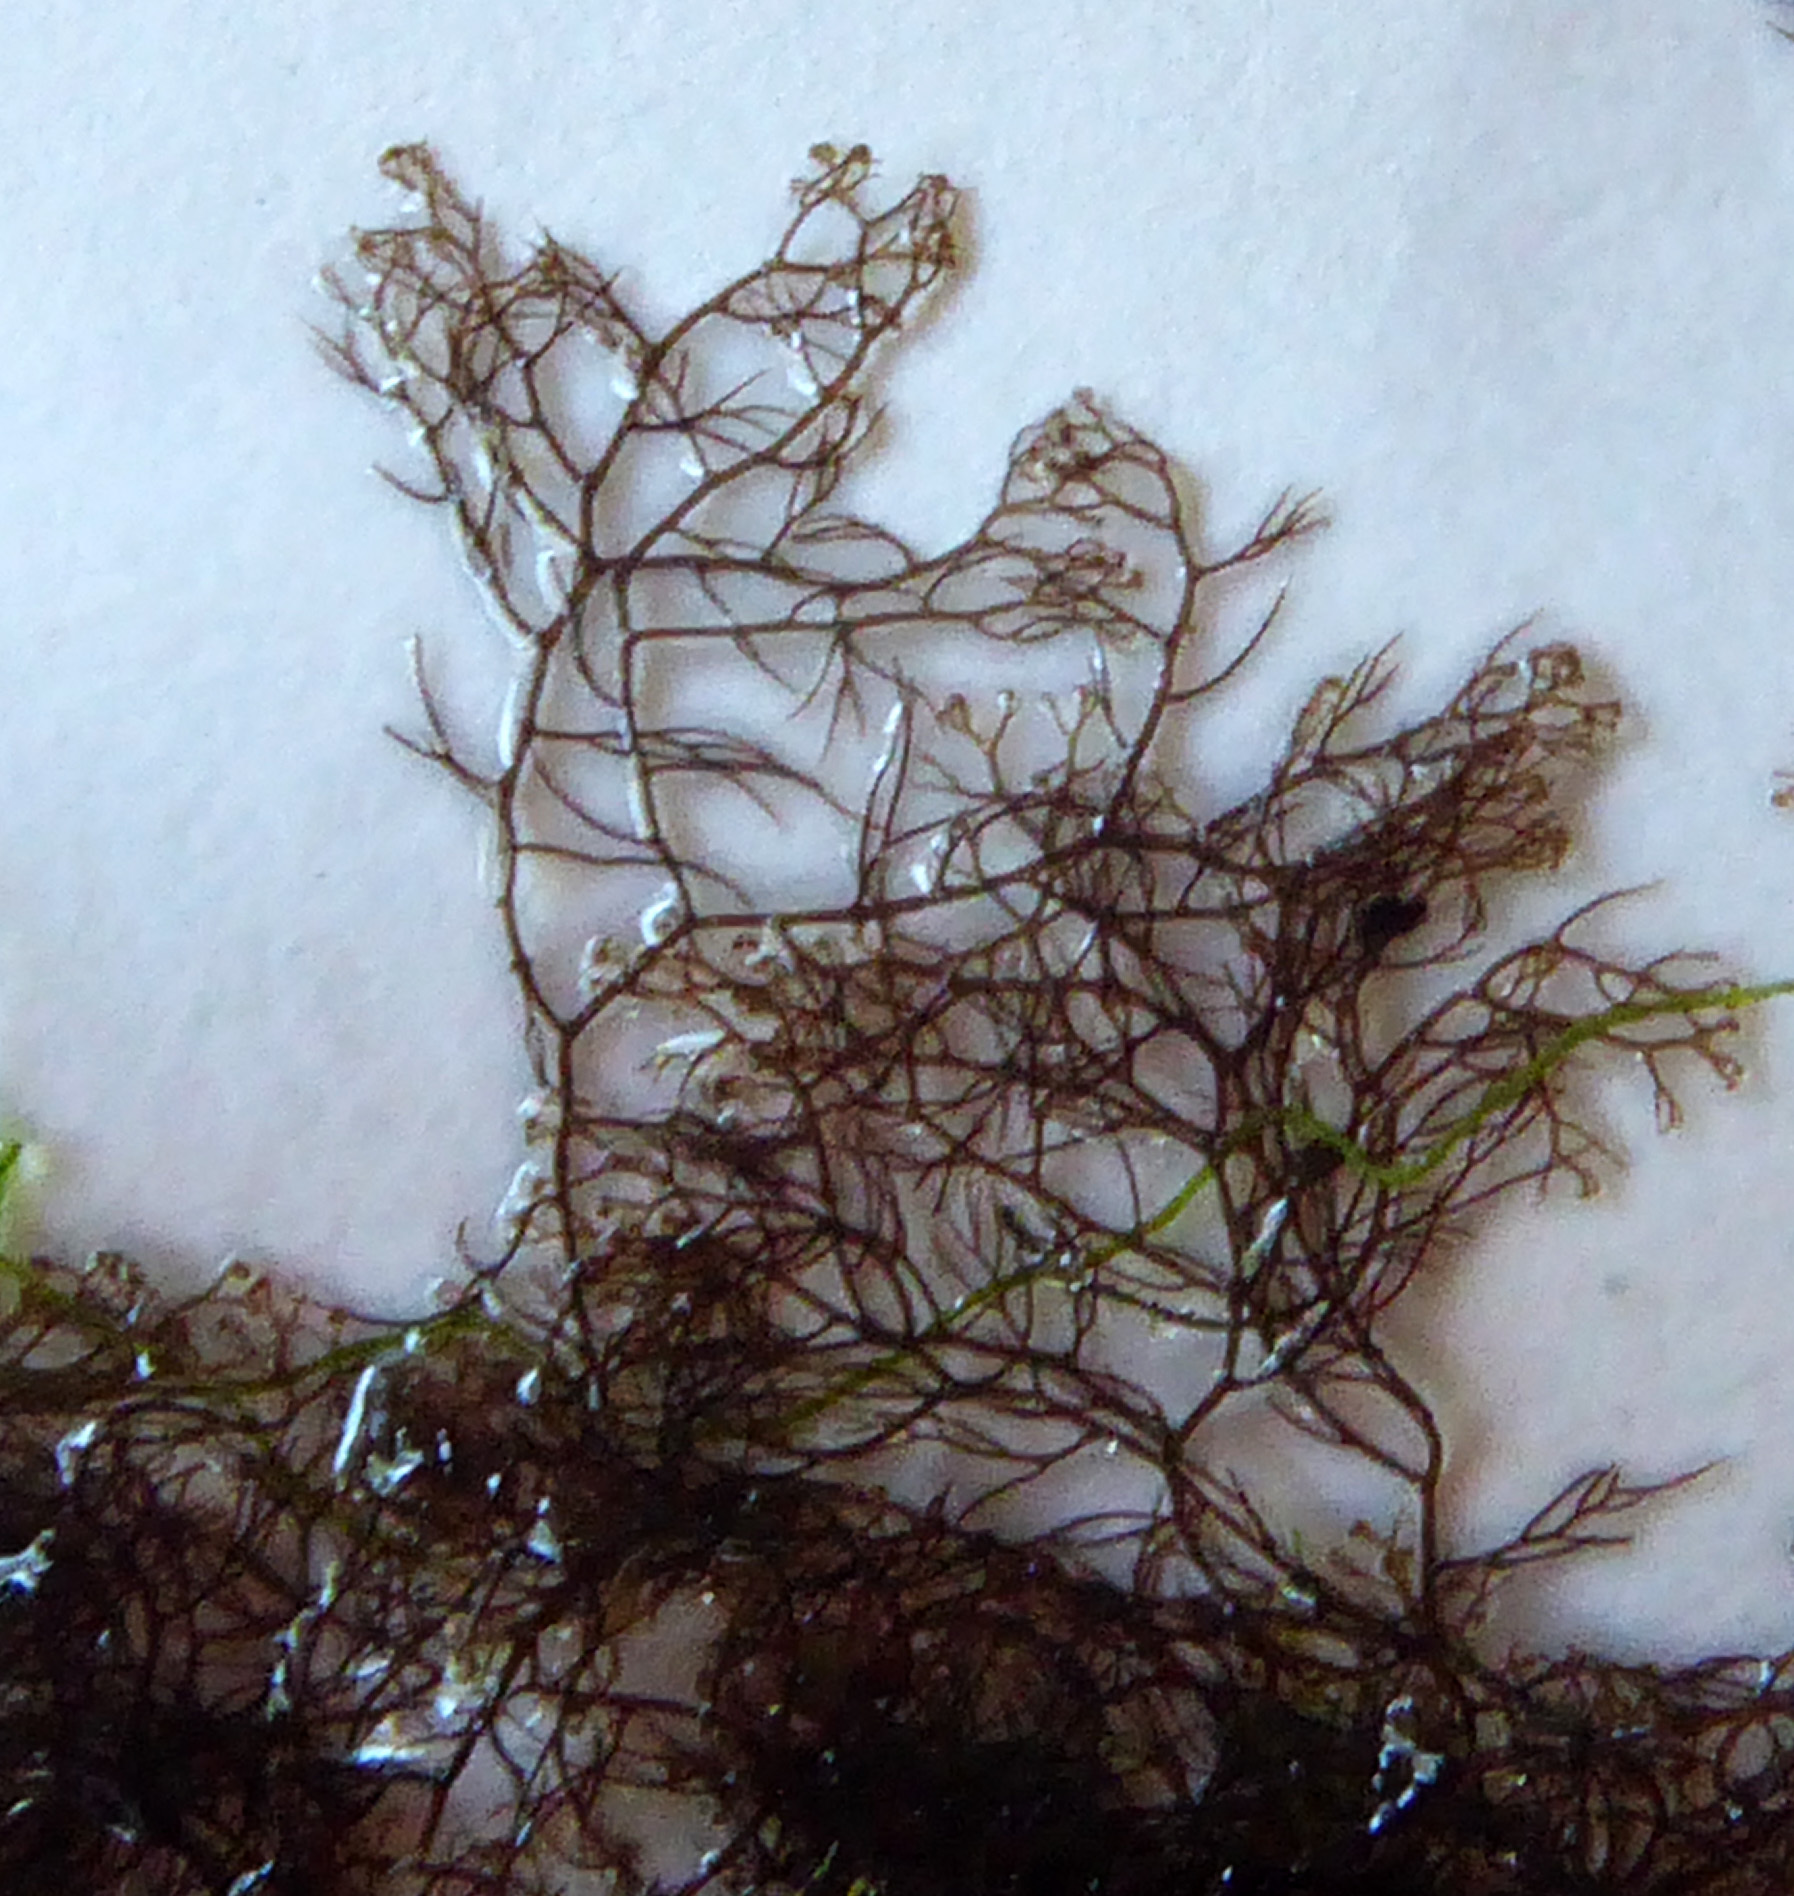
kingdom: Plantae
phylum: Rhodophyta
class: Florideophyceae
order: Ceramiales
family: Rhodomelaceae
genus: Bostrychia
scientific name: Bostrychia harveyi
